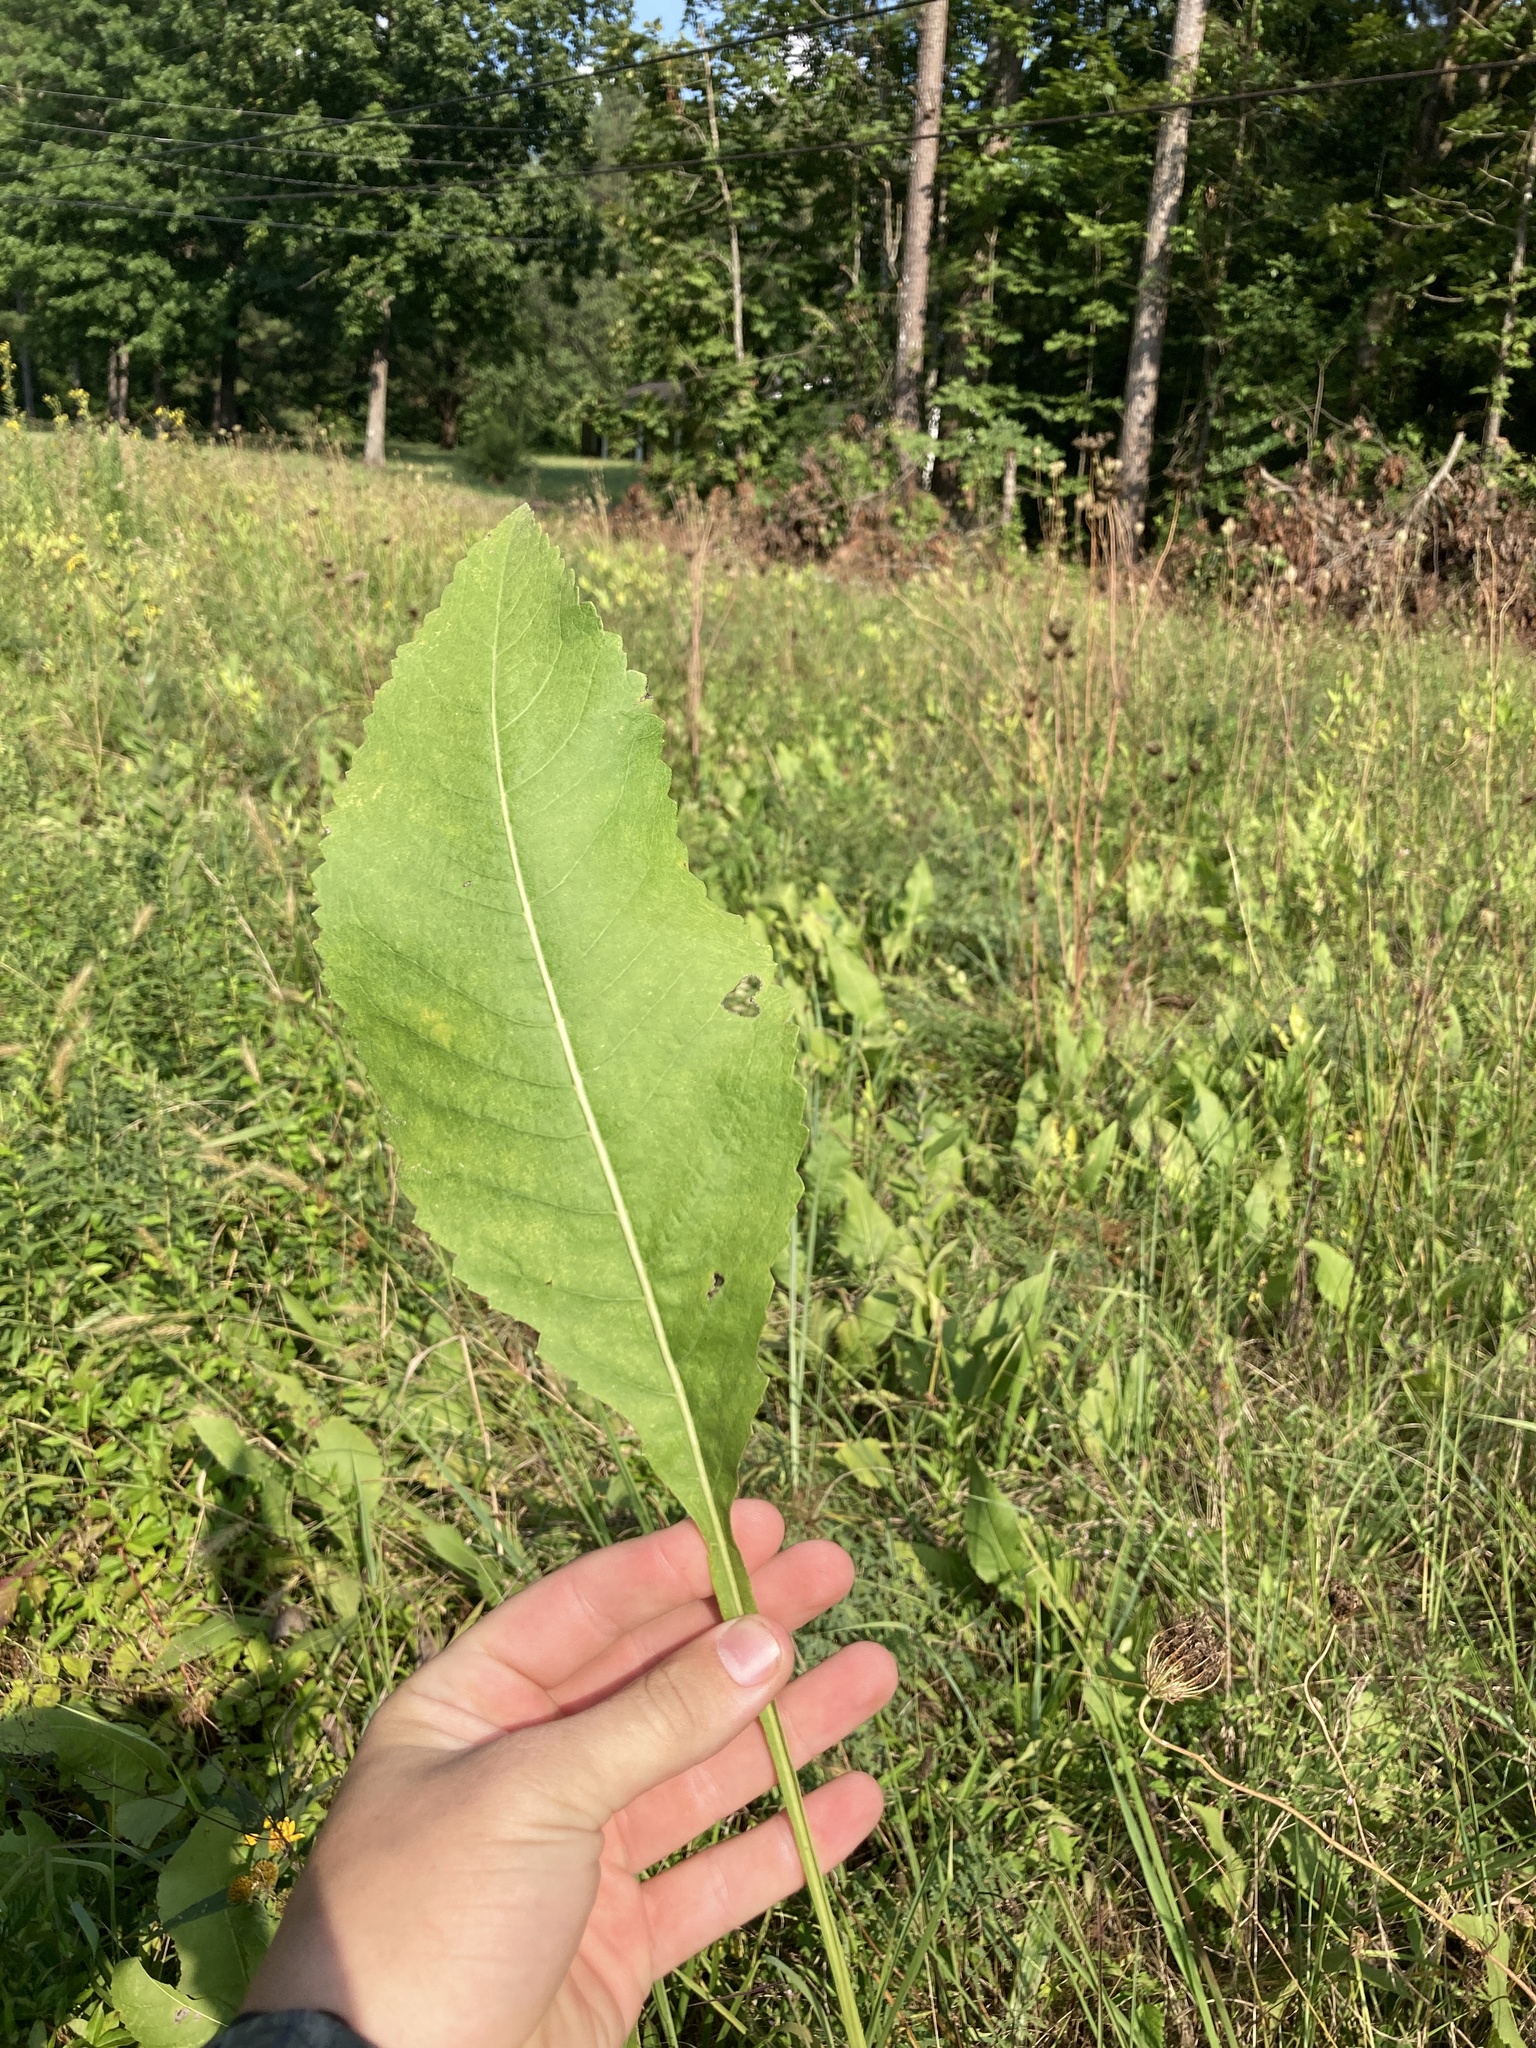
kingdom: Plantae
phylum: Tracheophyta
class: Magnoliopsida
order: Asterales
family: Asteraceae
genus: Parthenium
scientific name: Parthenium integrifolium
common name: American feverfew
